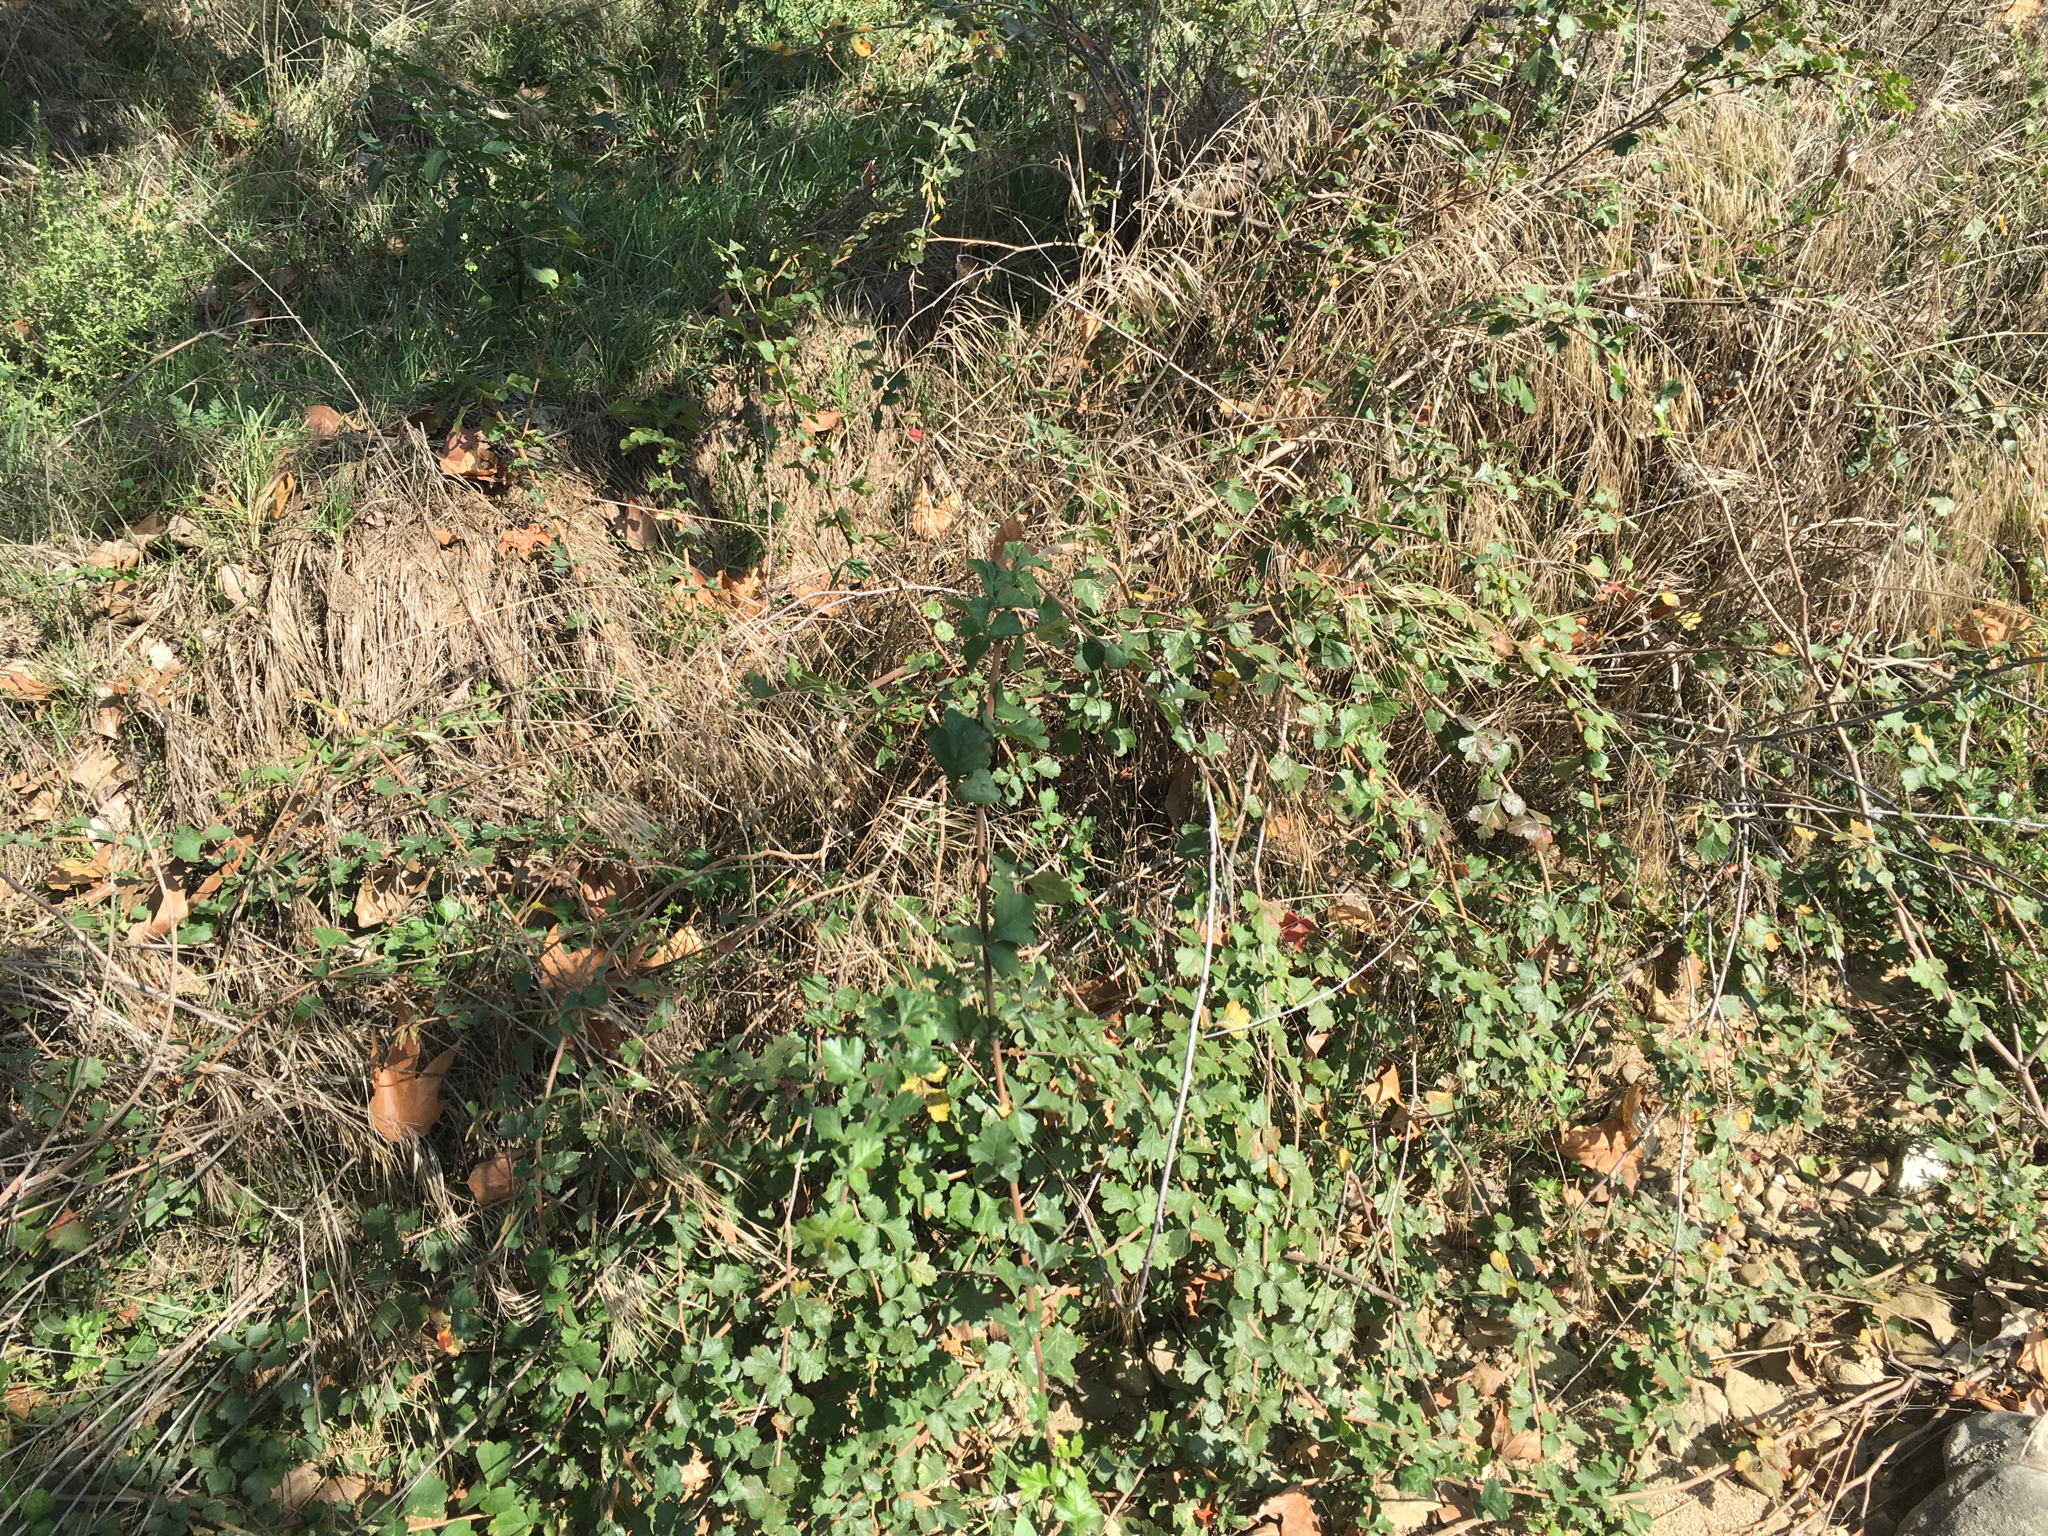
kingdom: Plantae
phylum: Tracheophyta
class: Magnoliopsida
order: Sapindales
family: Anacardiaceae
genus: Rhus
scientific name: Rhus aromatica
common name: Aromatic sumac
